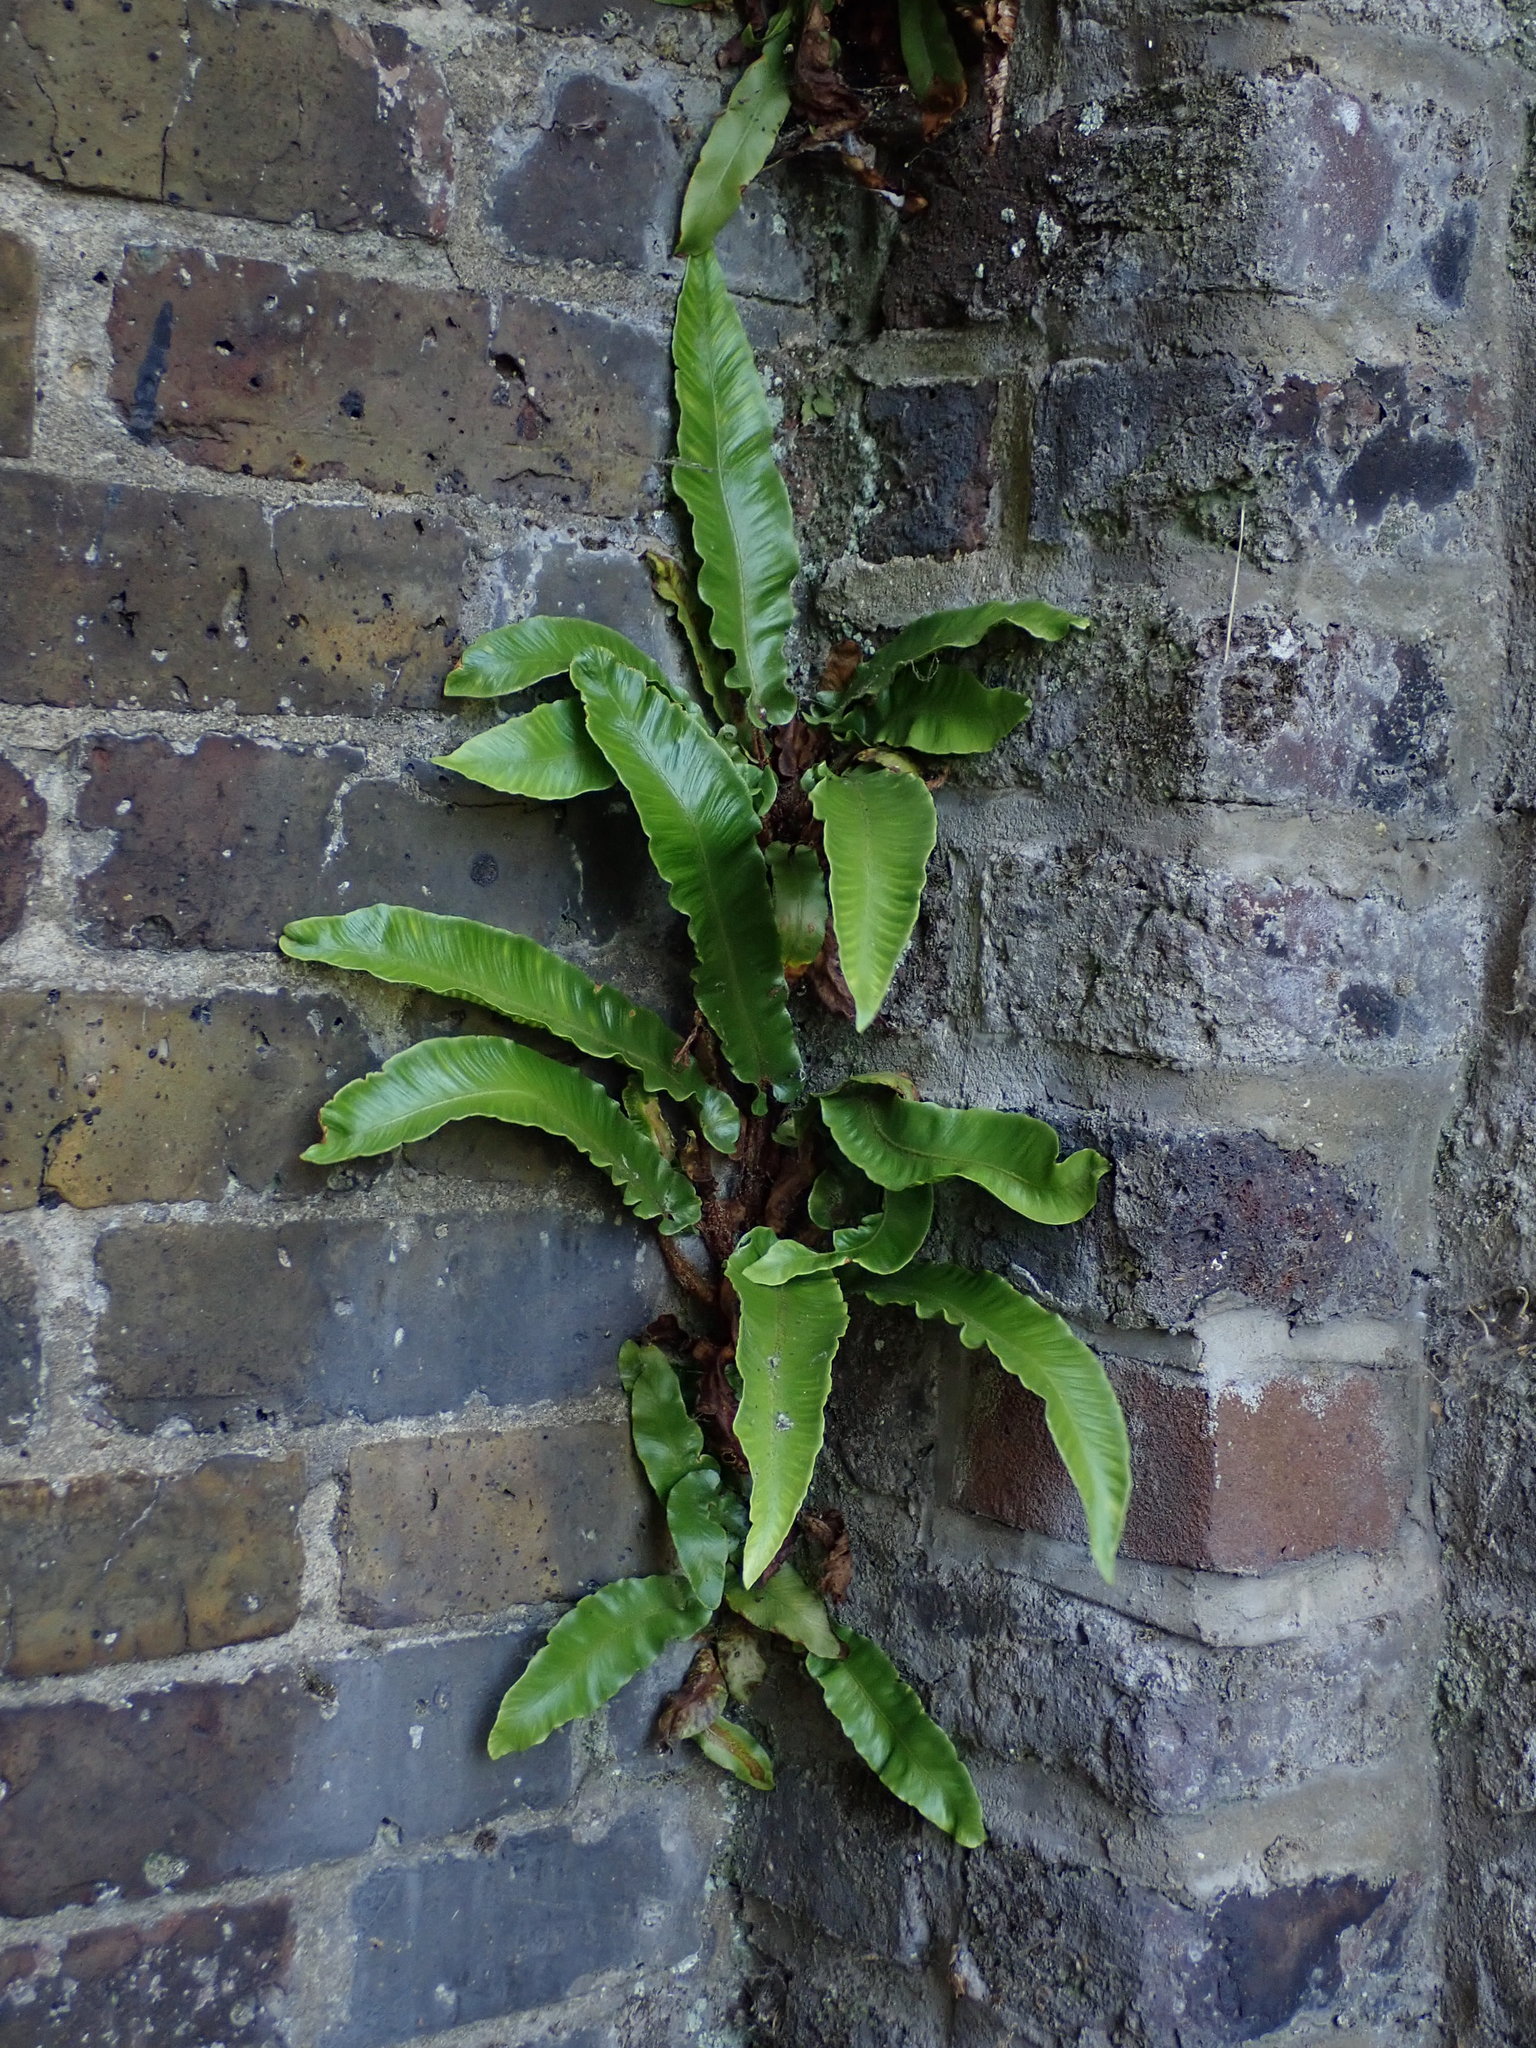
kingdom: Plantae
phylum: Tracheophyta
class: Polypodiopsida
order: Polypodiales
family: Aspleniaceae
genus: Asplenium
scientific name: Asplenium scolopendrium
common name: Hart's-tongue fern
